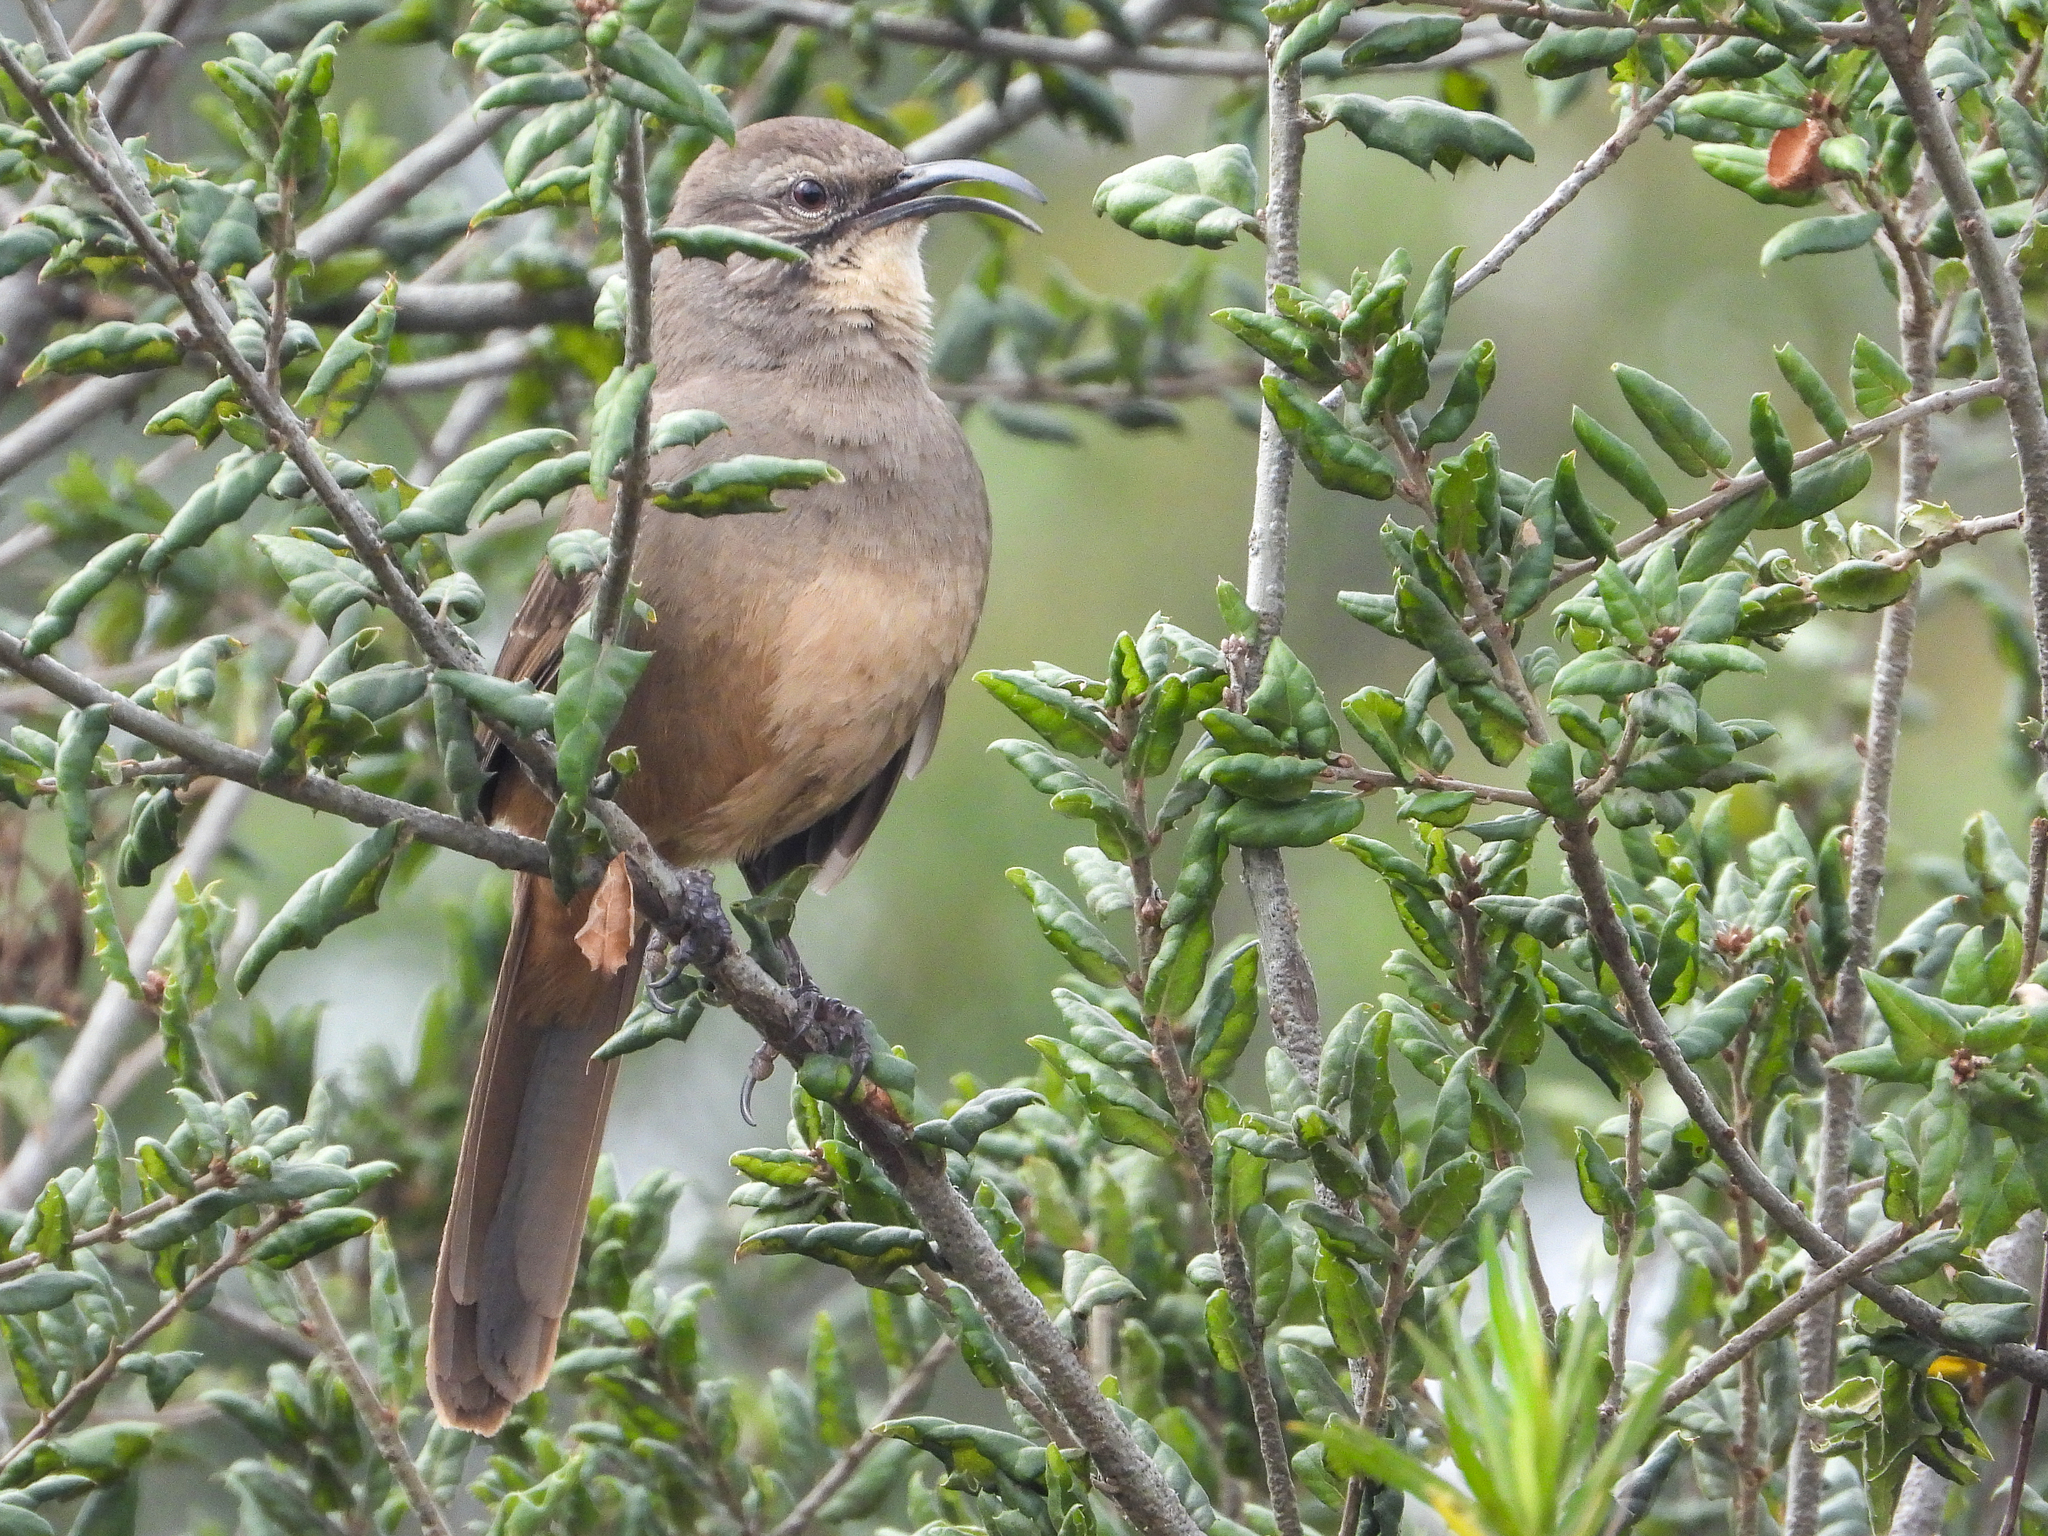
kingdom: Animalia
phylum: Chordata
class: Aves
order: Passeriformes
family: Mimidae
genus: Toxostoma
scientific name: Toxostoma redivivum
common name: California thrasher
